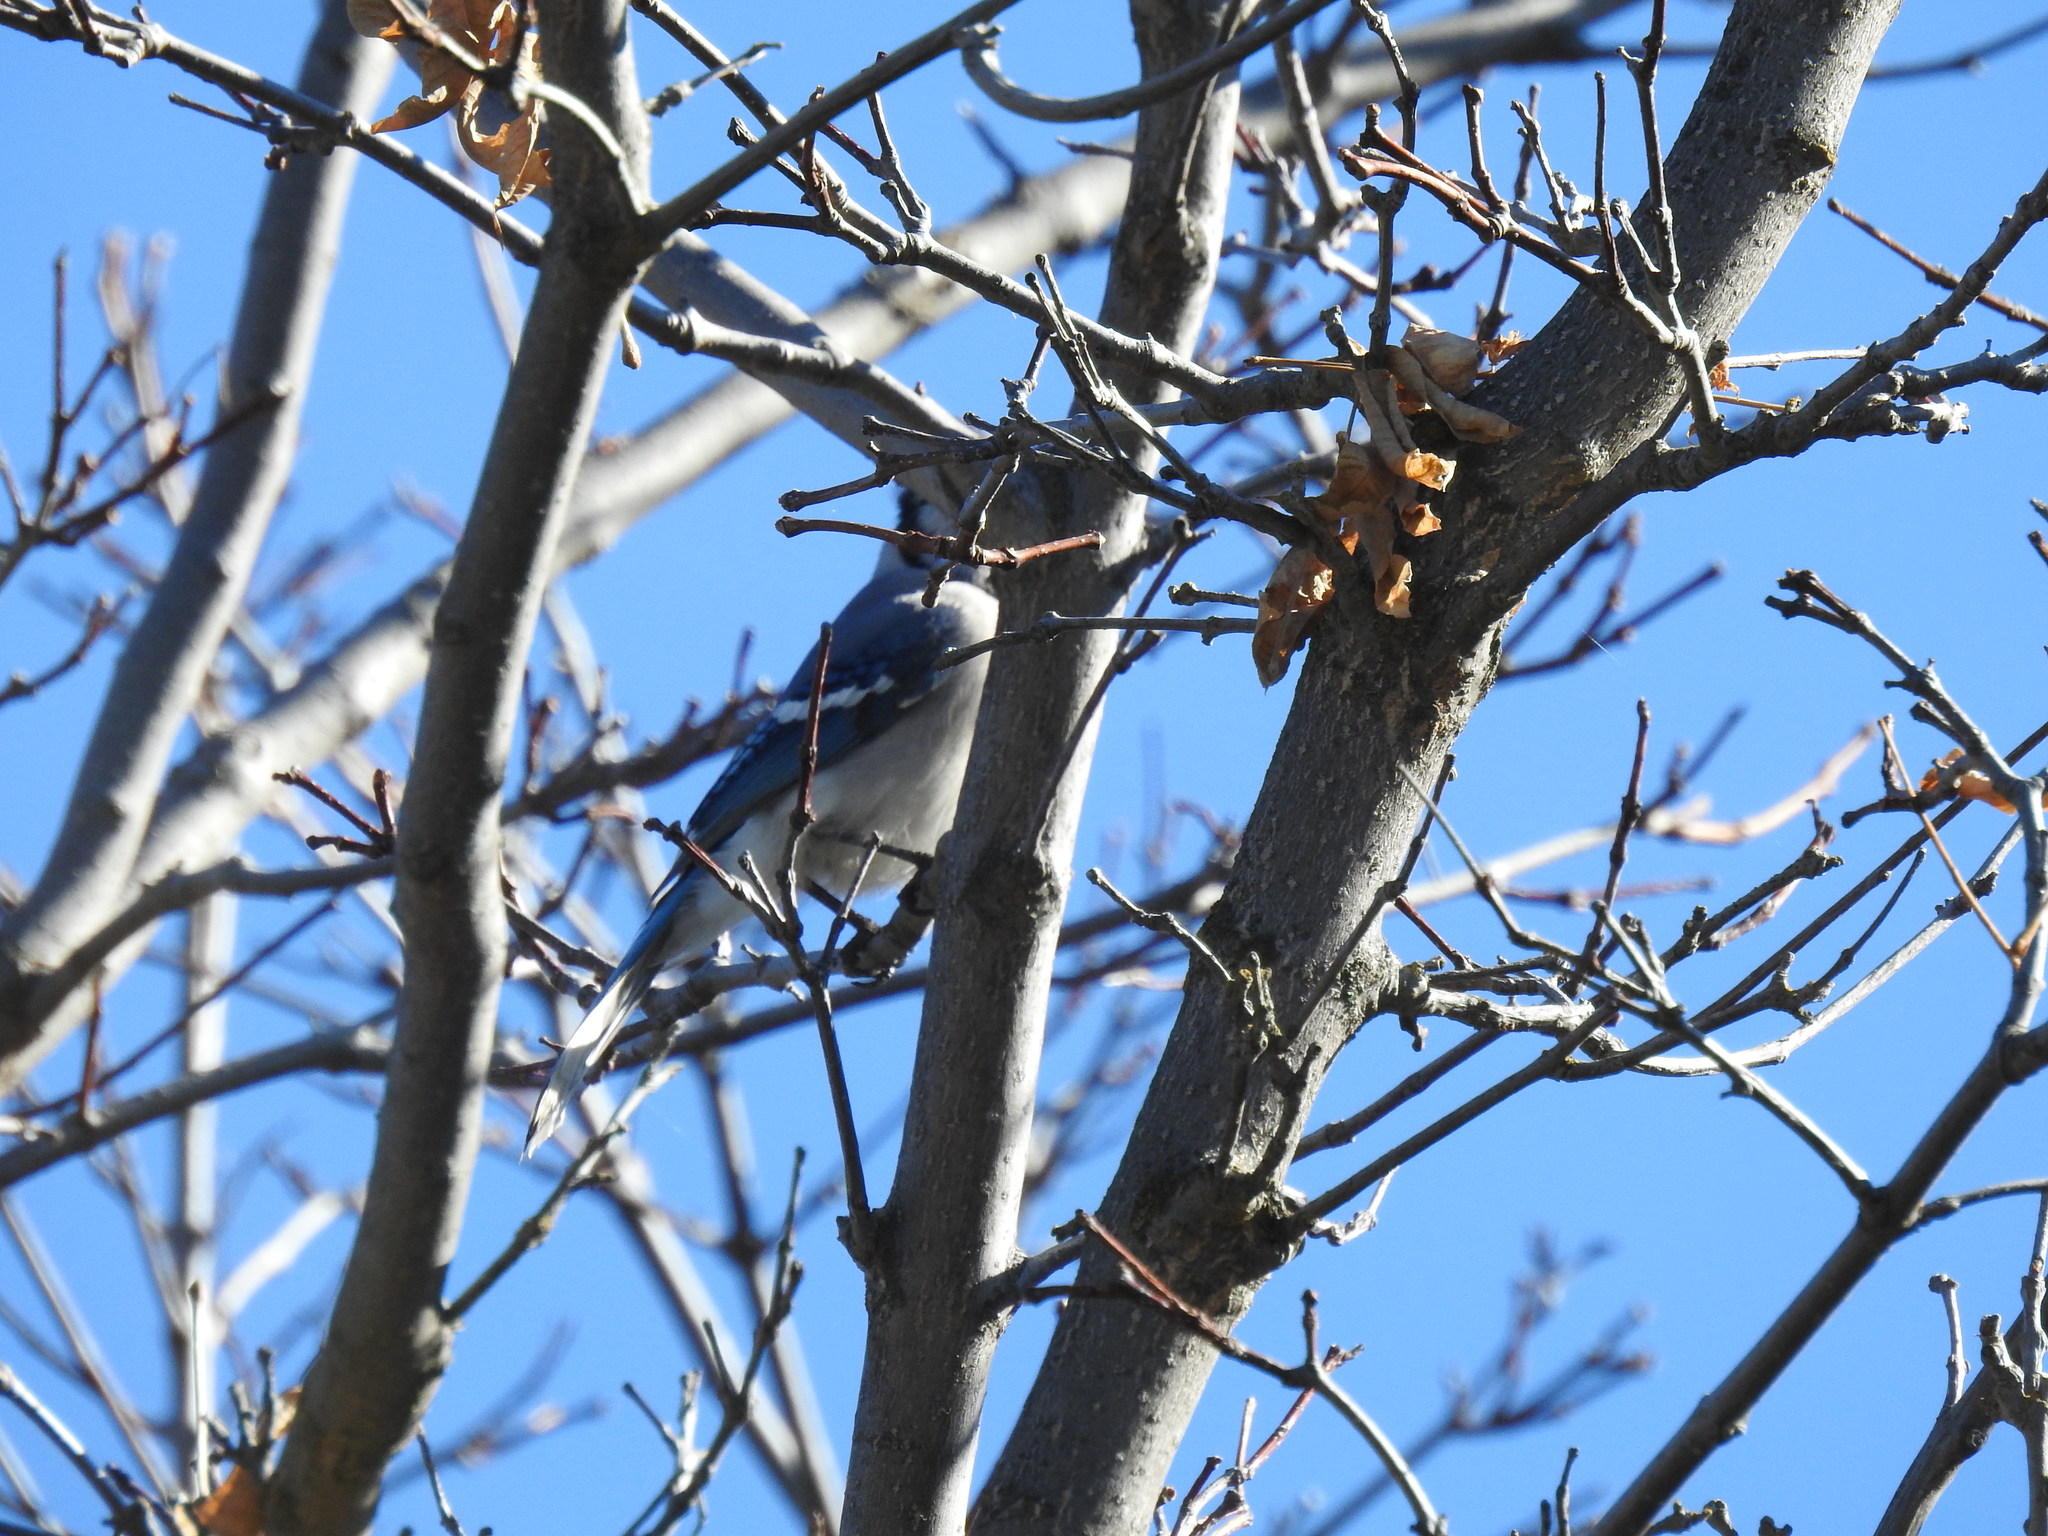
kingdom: Animalia
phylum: Chordata
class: Aves
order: Passeriformes
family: Corvidae
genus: Cyanocitta
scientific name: Cyanocitta cristata
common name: Blue jay
